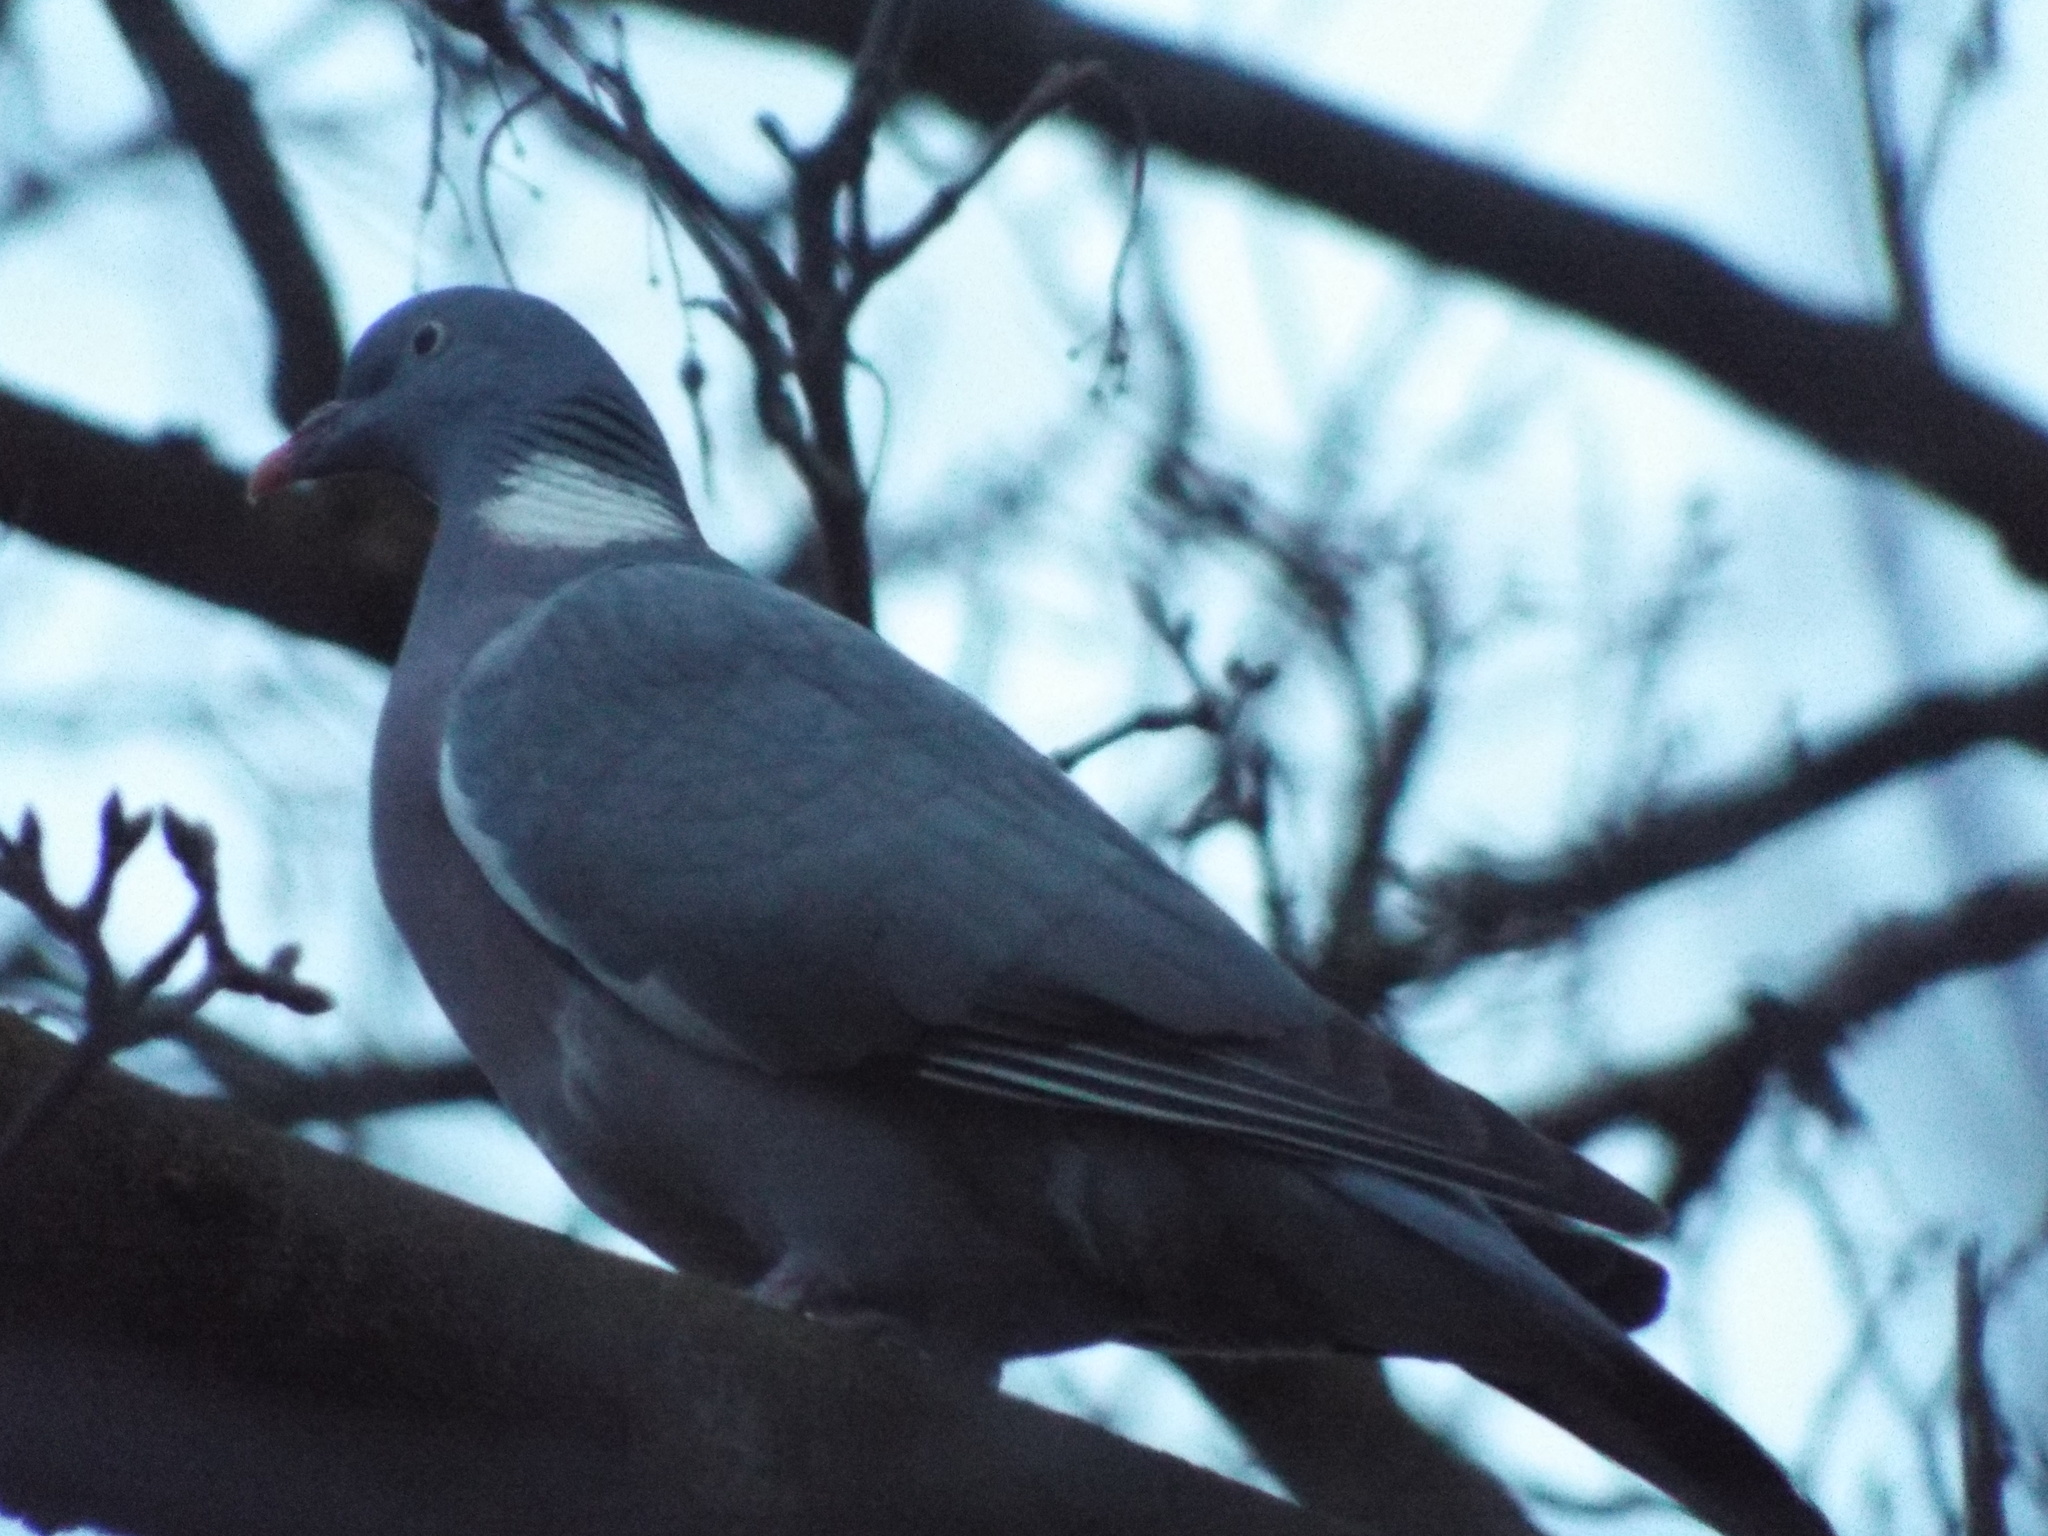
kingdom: Animalia
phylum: Chordata
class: Aves
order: Columbiformes
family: Columbidae
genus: Columba
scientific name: Columba palumbus
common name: Common wood pigeon
